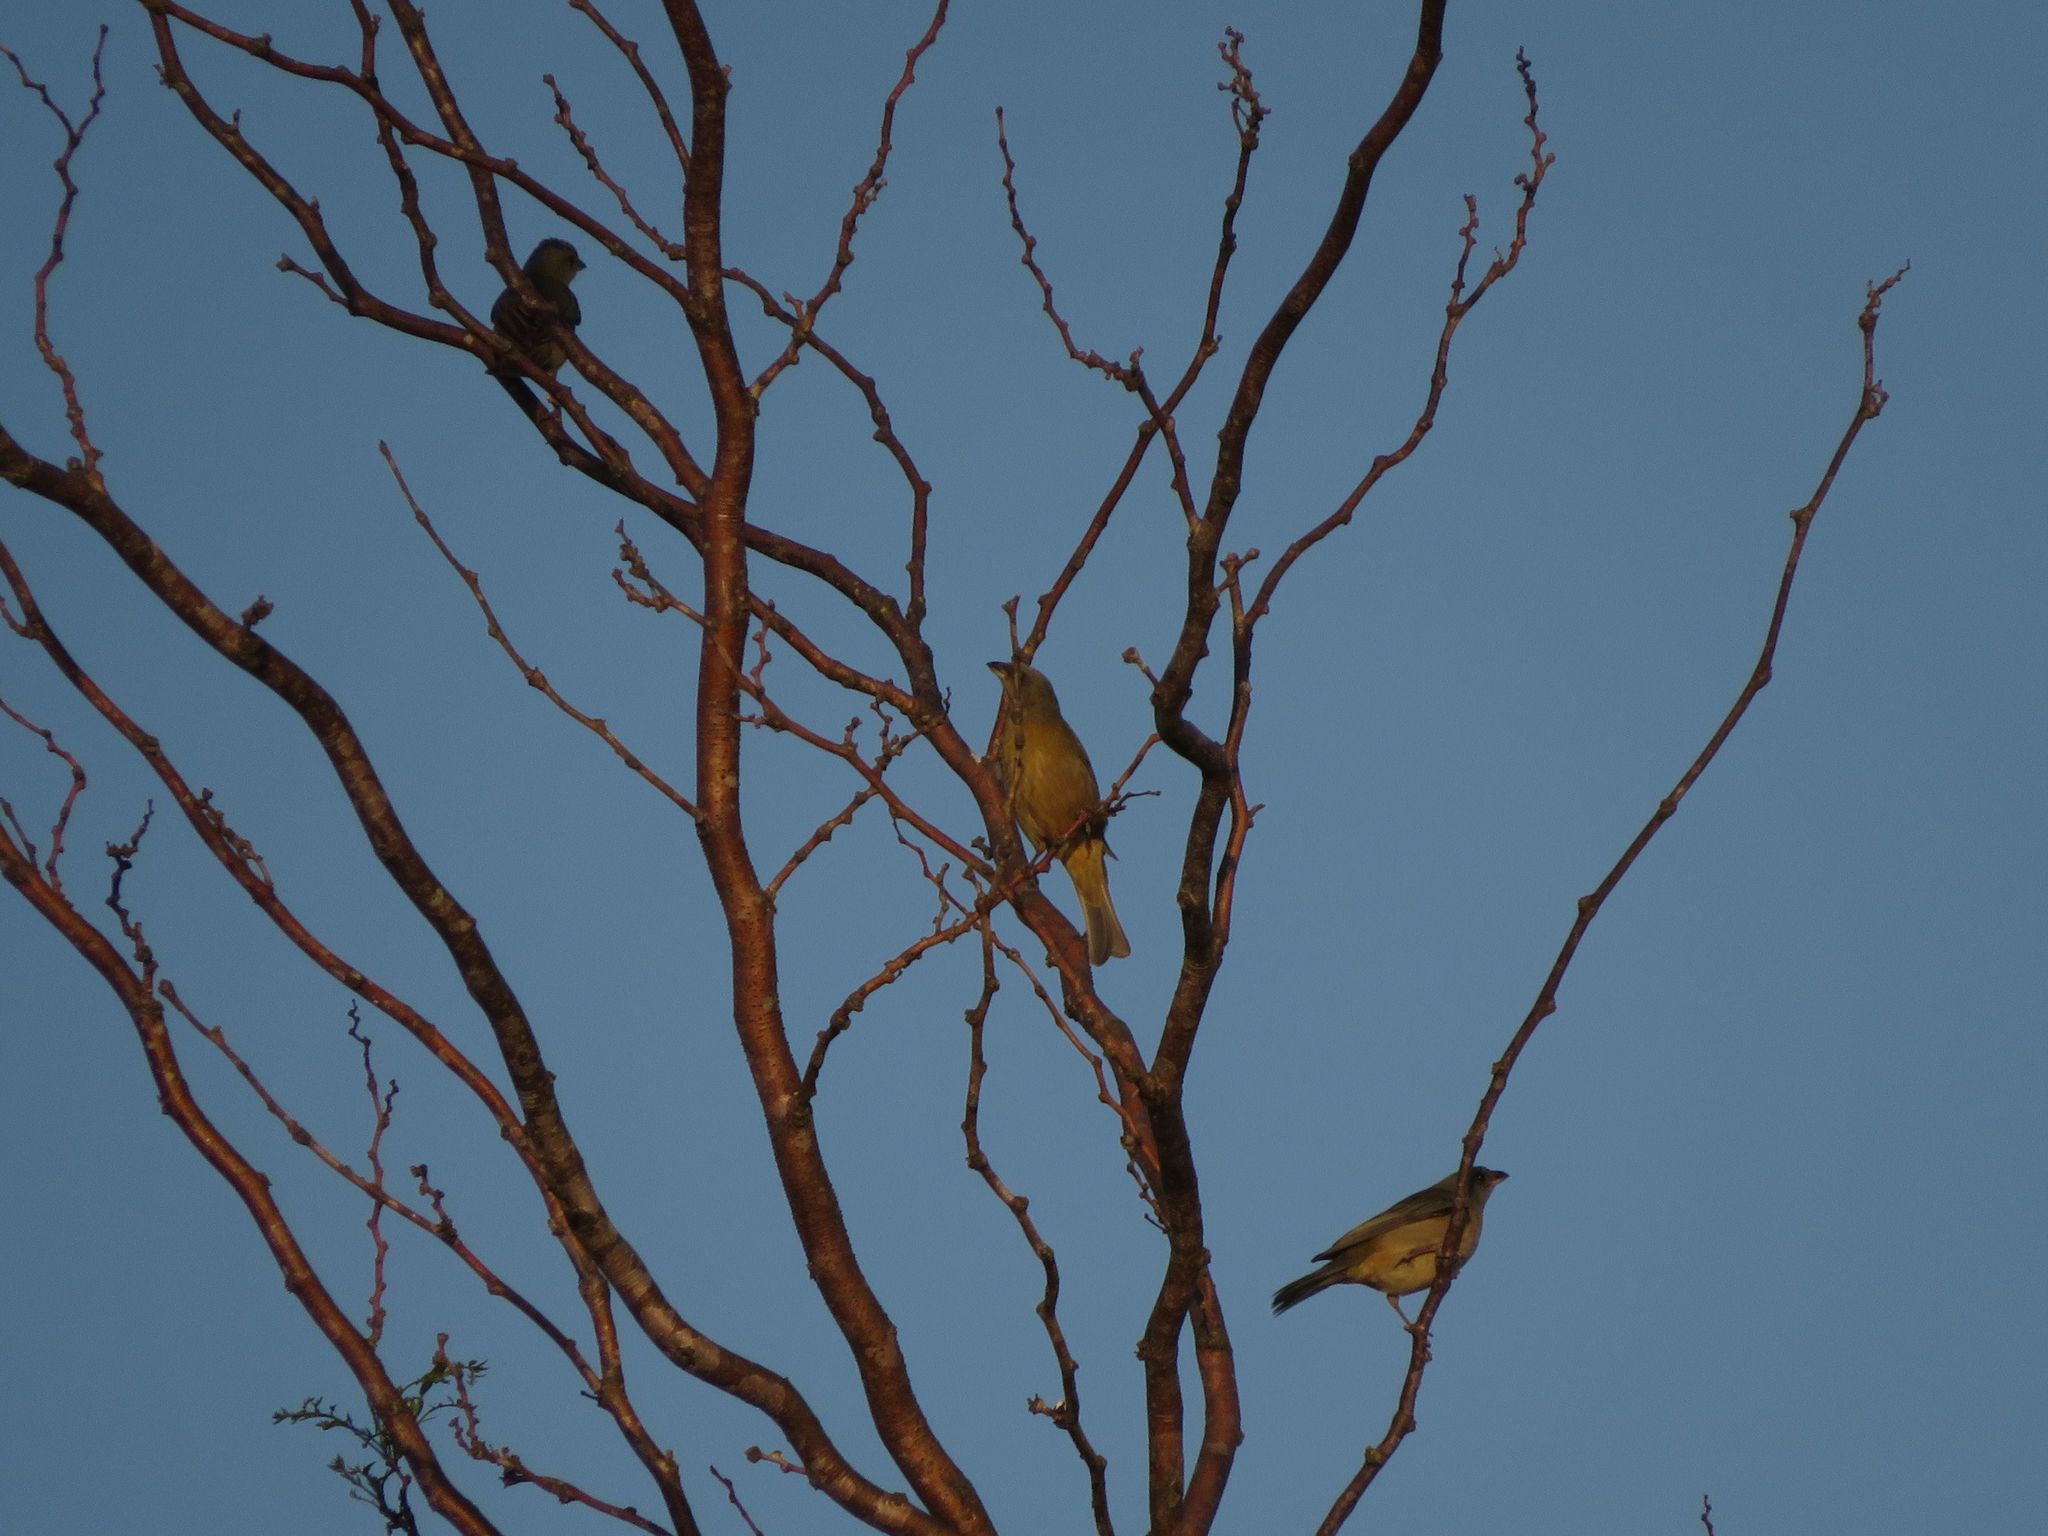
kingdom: Animalia
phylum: Chordata
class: Aves
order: Passeriformes
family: Thraupidae
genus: Rauenia
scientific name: Rauenia bonariensis
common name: Blue-and-yellow tanager
